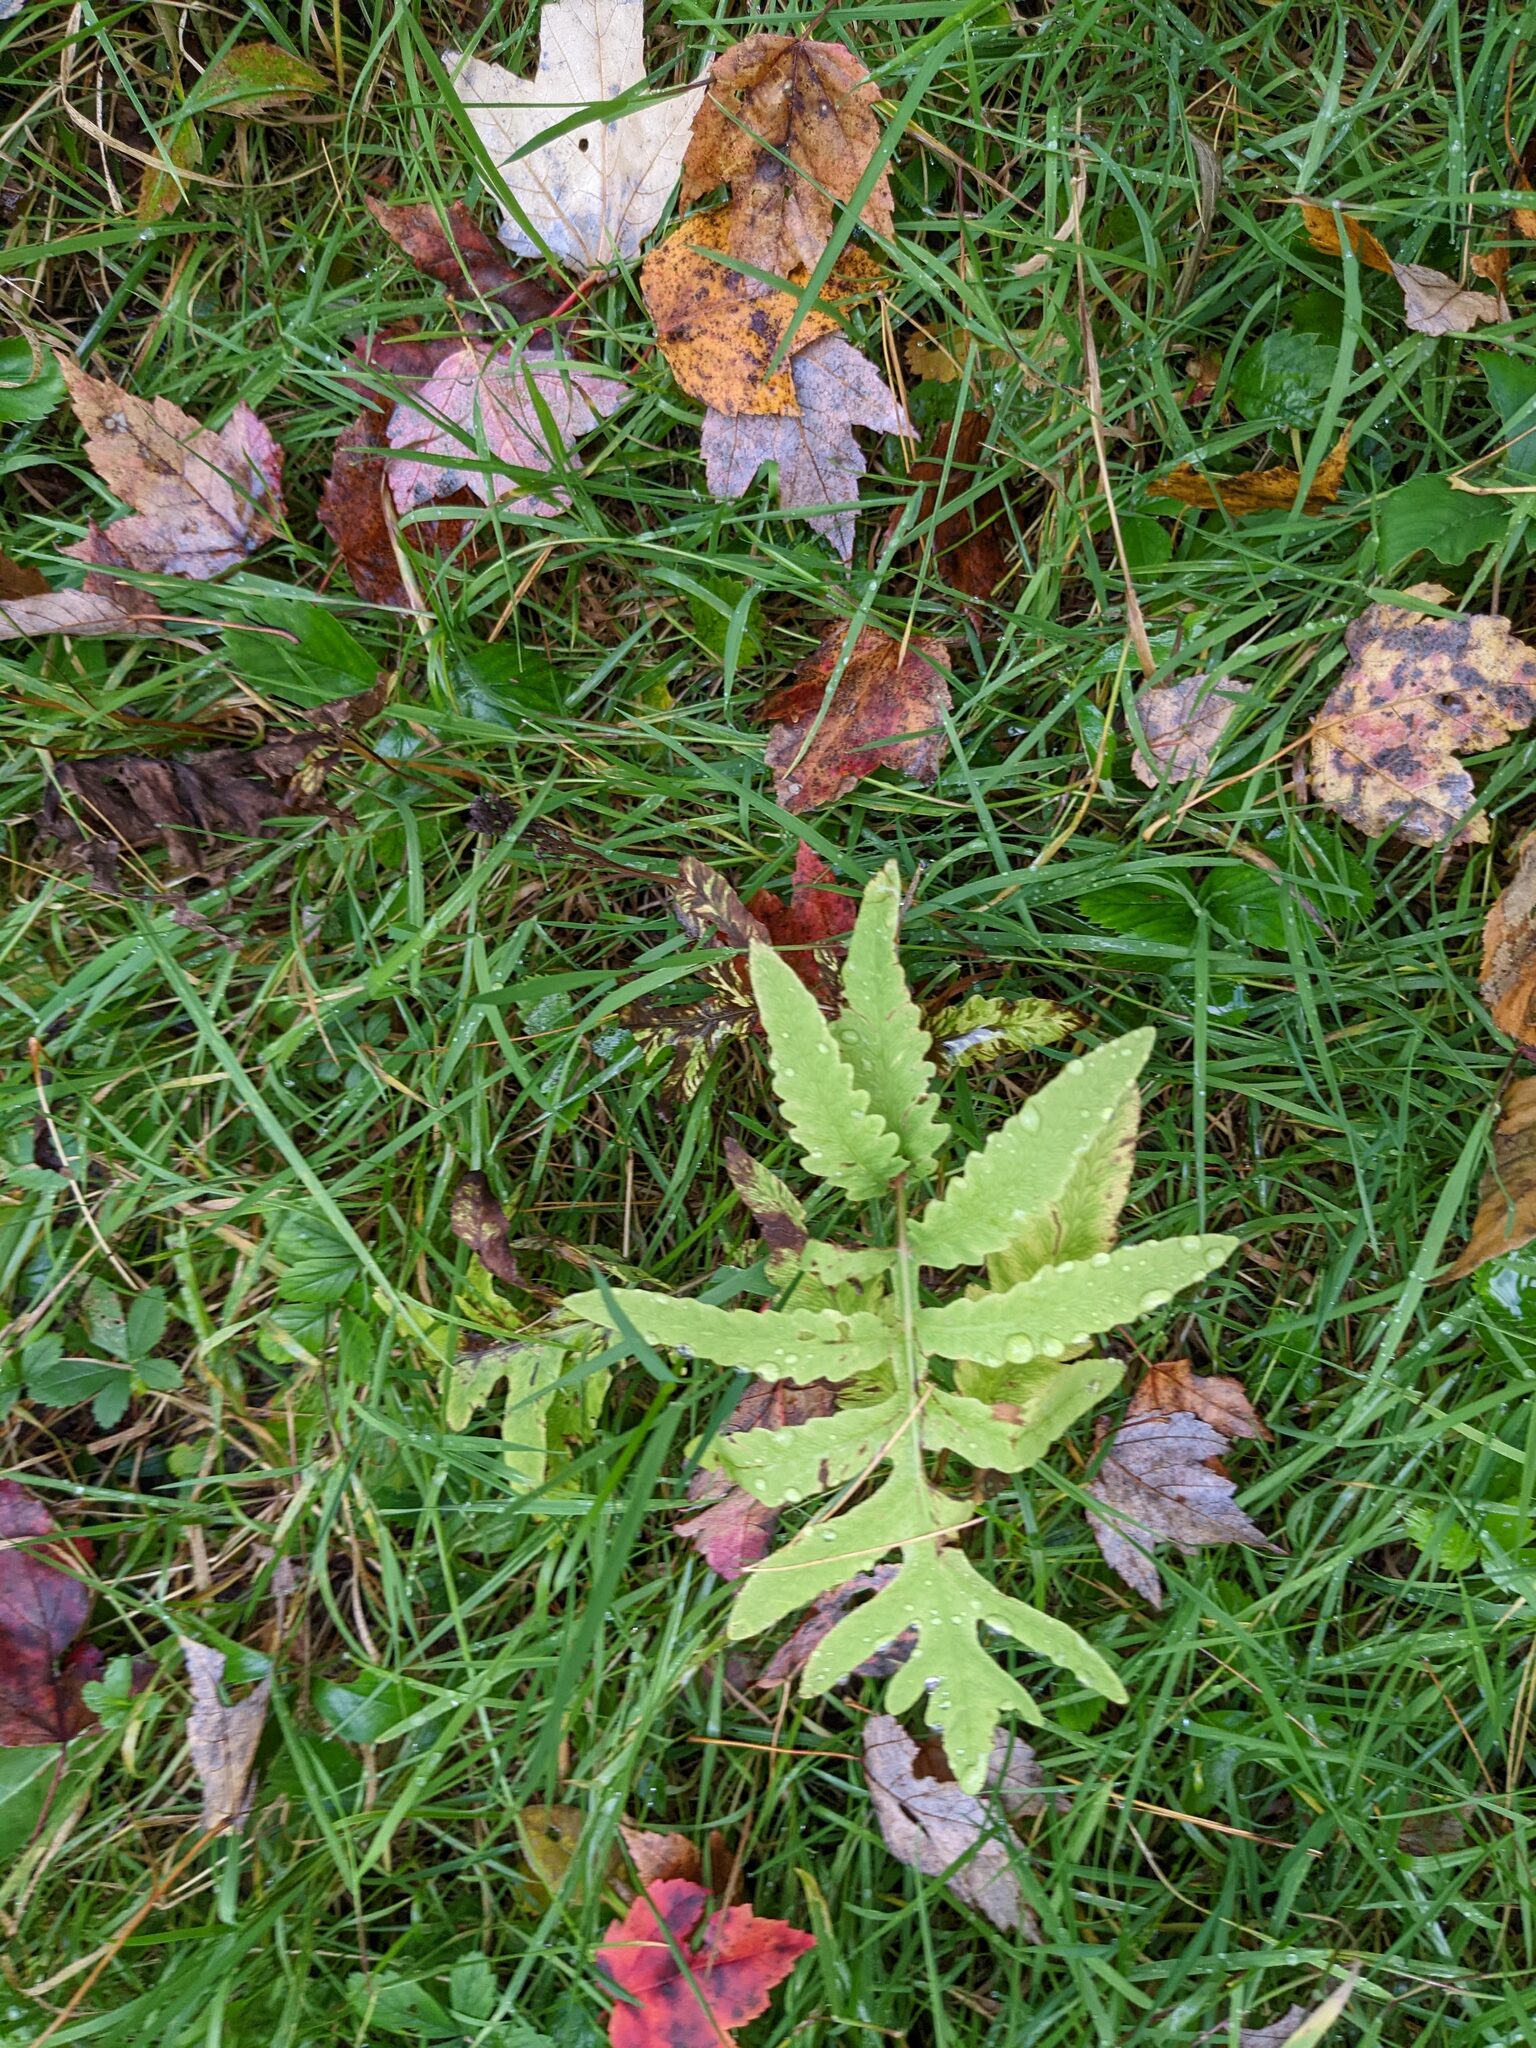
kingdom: Plantae
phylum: Tracheophyta
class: Polypodiopsida
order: Polypodiales
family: Onocleaceae
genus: Onoclea
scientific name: Onoclea sensibilis
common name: Sensitive fern
